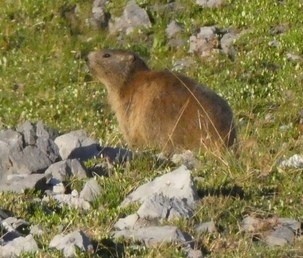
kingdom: Animalia
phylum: Chordata
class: Mammalia
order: Rodentia
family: Sciuridae
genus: Marmota
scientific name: Marmota marmota
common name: Alpine marmot
